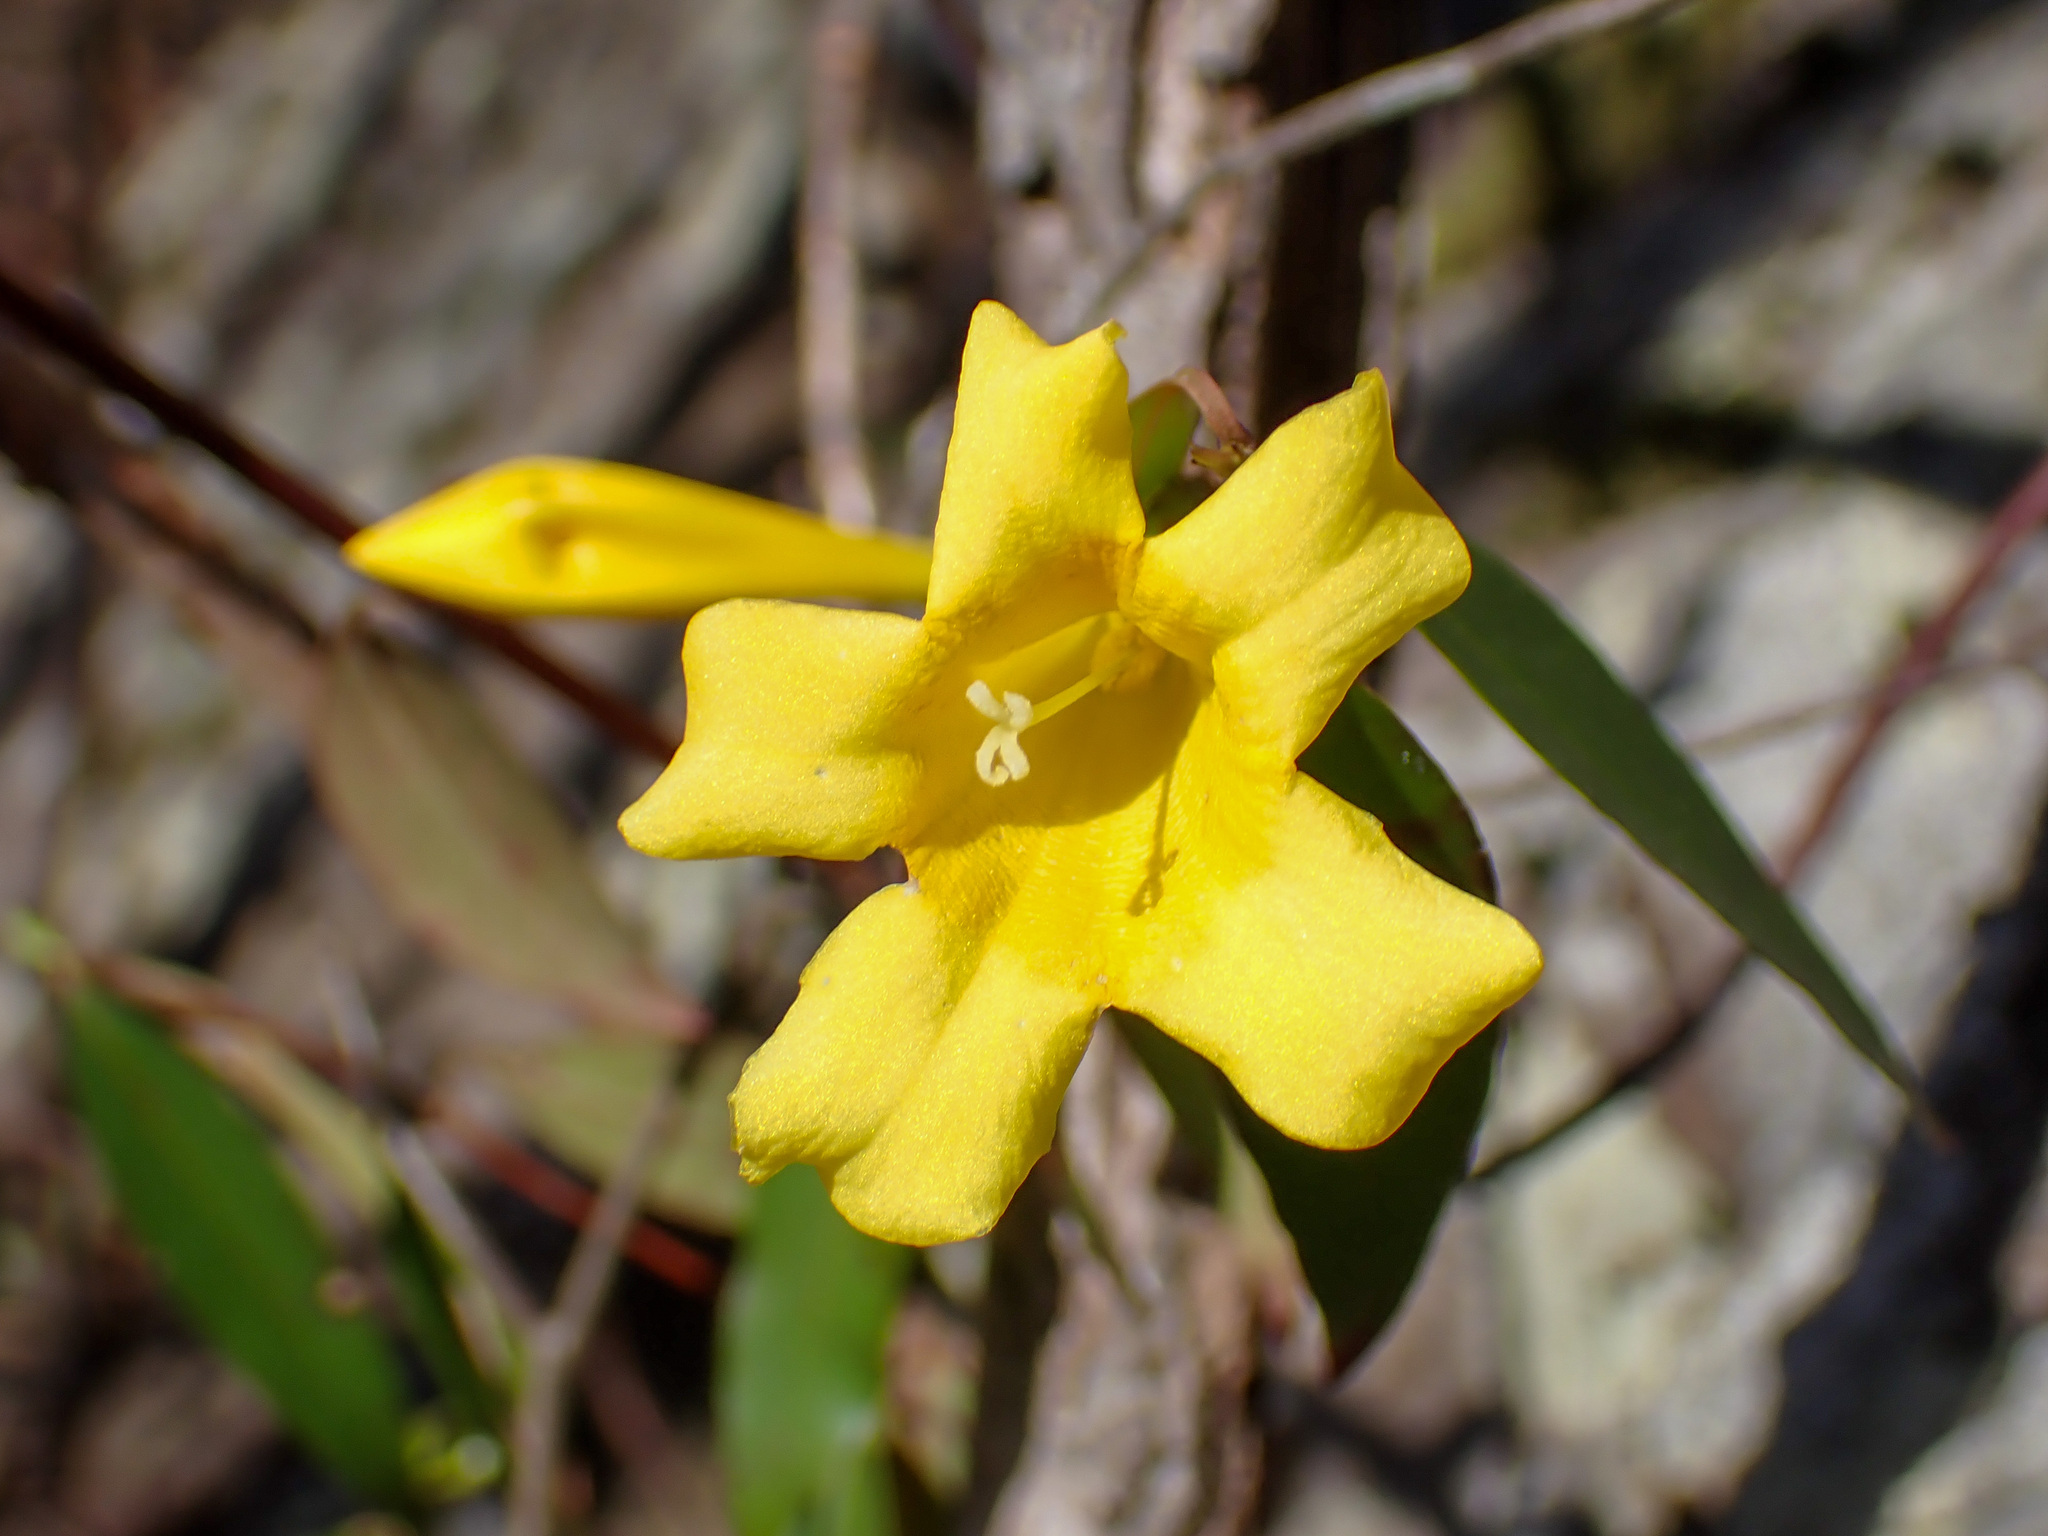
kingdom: Plantae
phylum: Tracheophyta
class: Magnoliopsida
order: Gentianales
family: Gelsemiaceae
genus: Gelsemium
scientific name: Gelsemium sempervirens
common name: Carolina-jasmine
